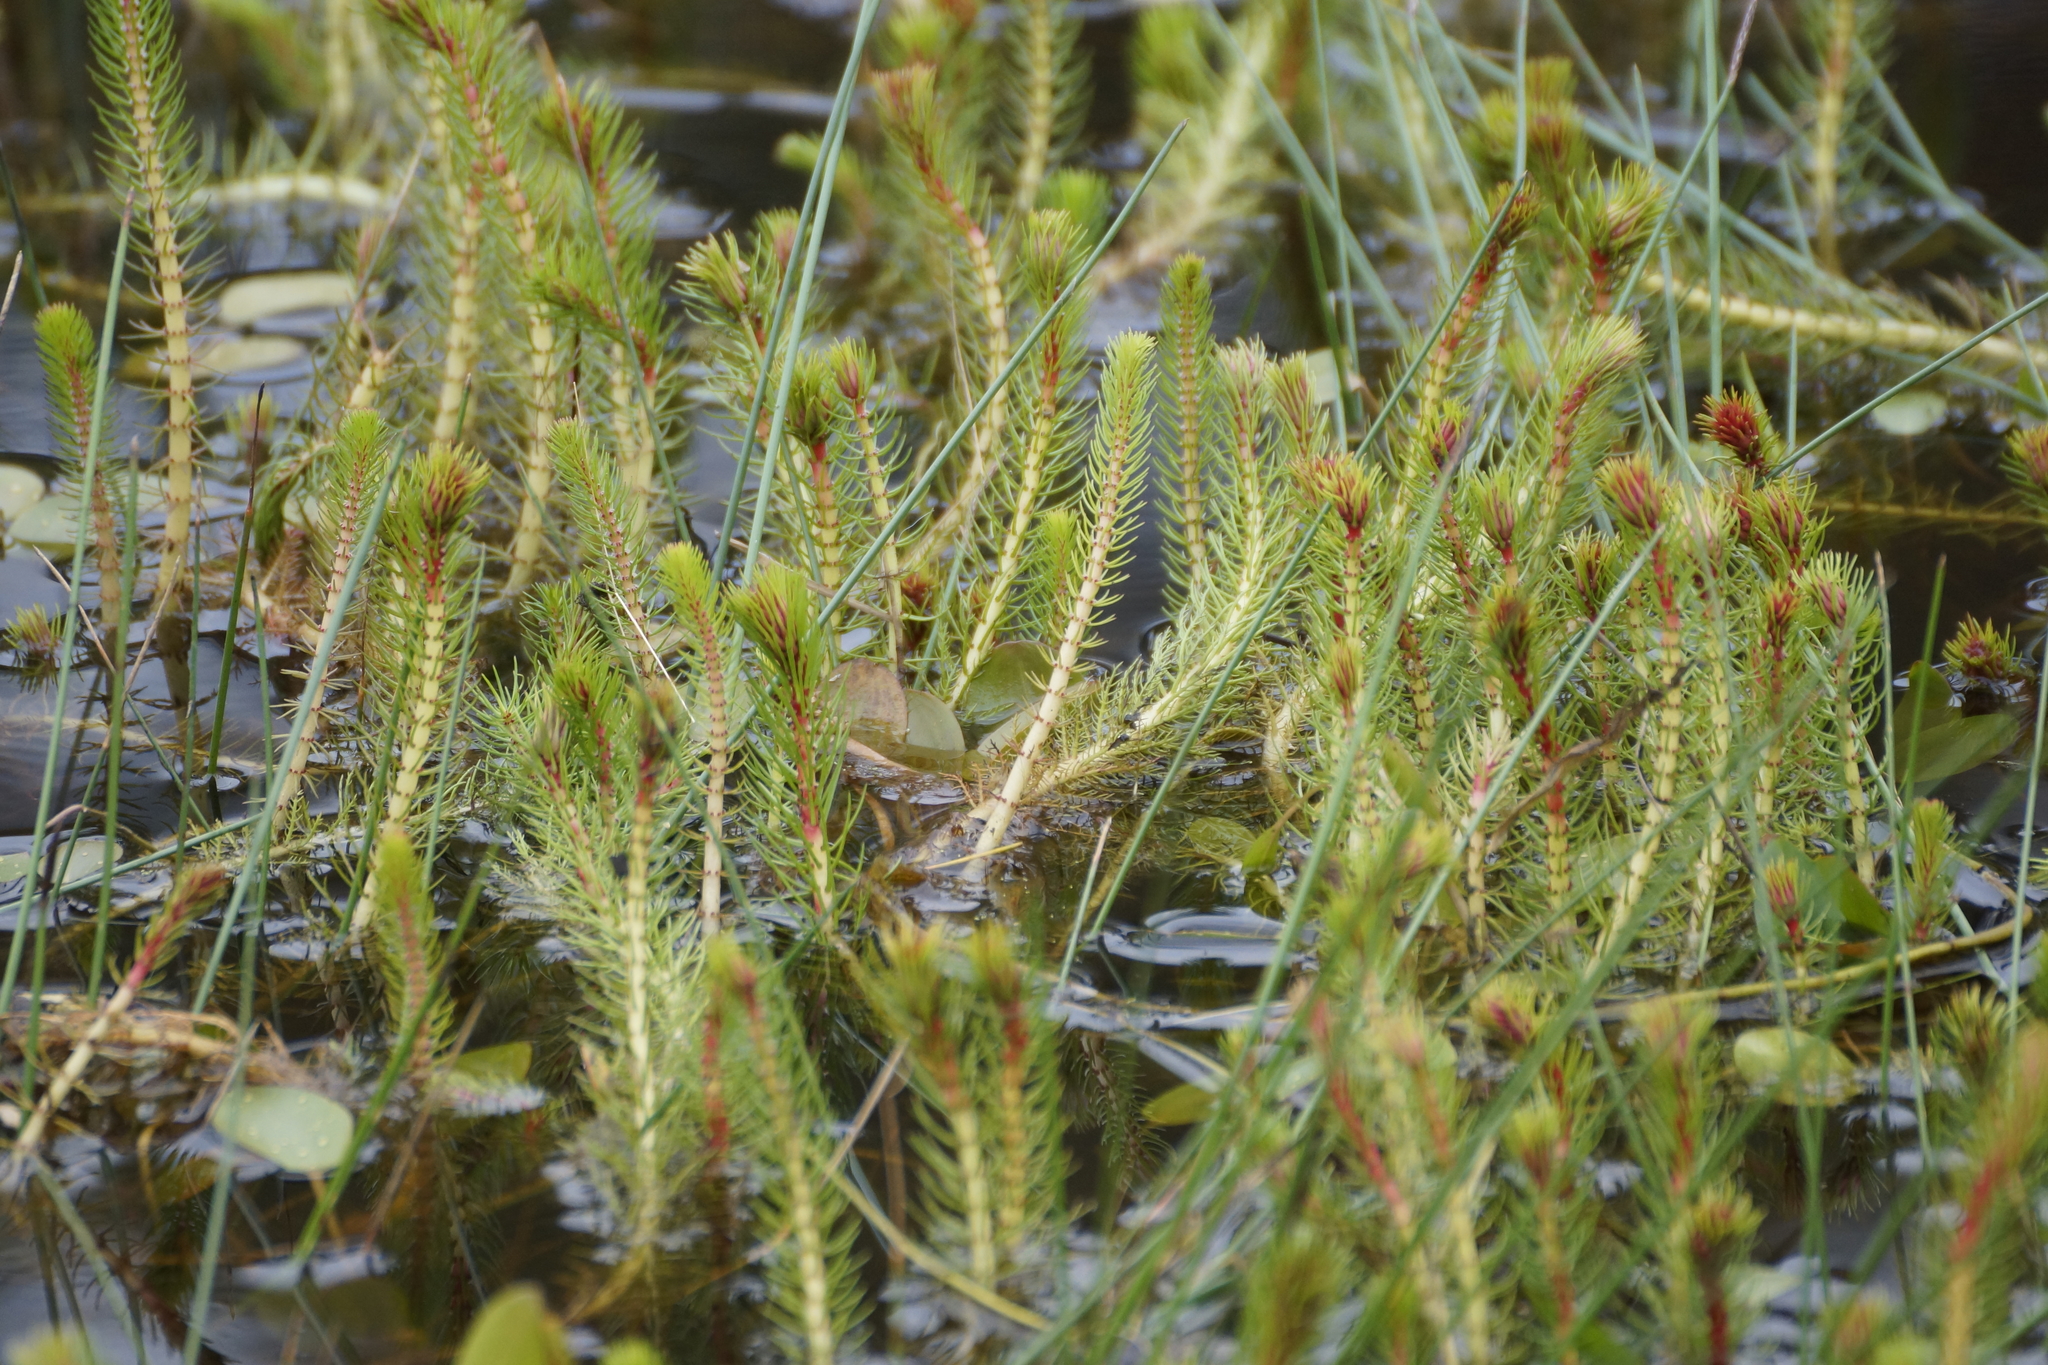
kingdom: Plantae
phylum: Tracheophyta
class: Magnoliopsida
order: Saxifragales
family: Haloragaceae
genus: Myriophyllum
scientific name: Myriophyllum variifolium
